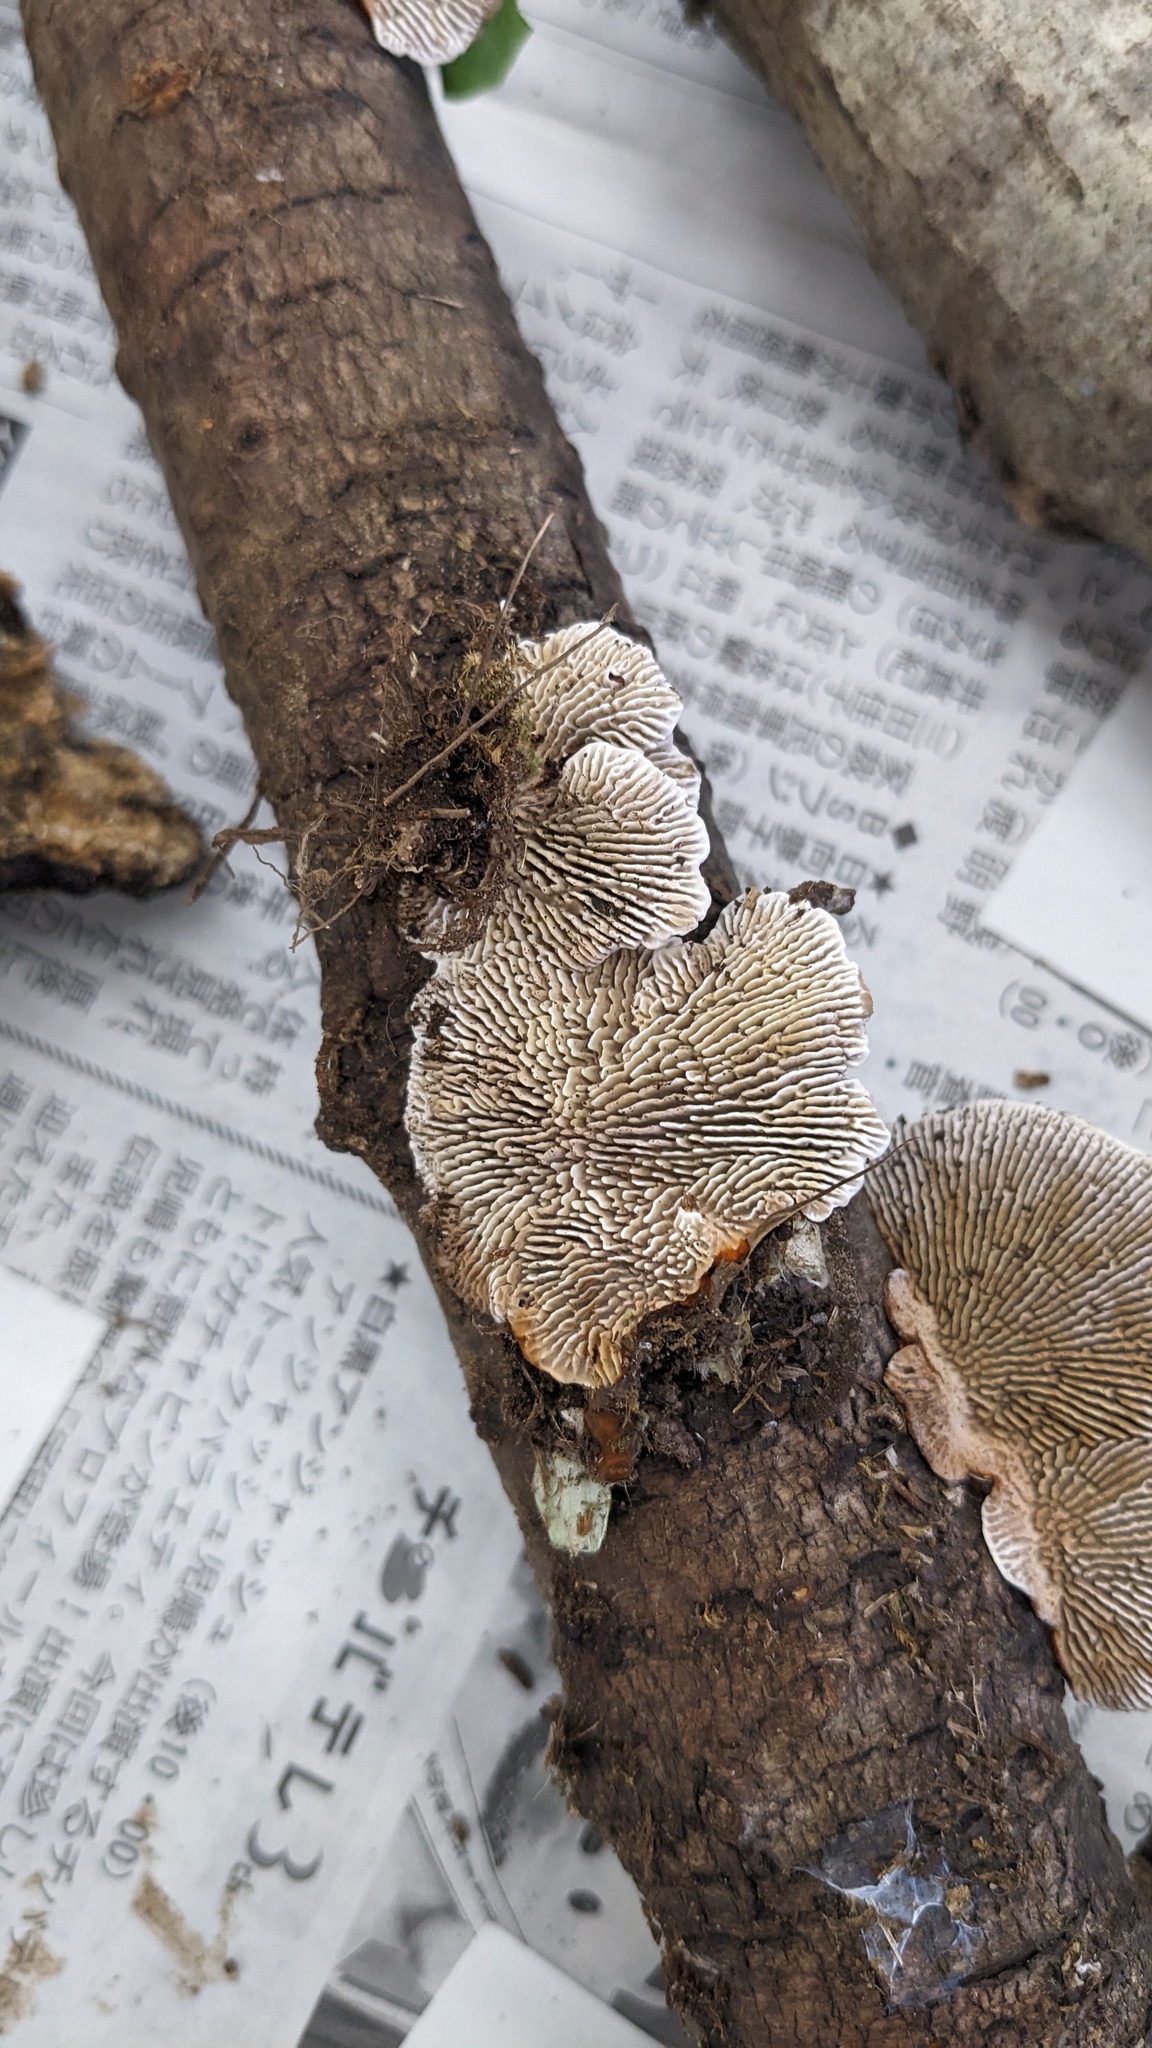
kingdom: Fungi
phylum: Basidiomycota
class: Agaricomycetes
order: Polyporales
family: Polyporaceae
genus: Daedaleopsis
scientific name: Daedaleopsis tricolor
